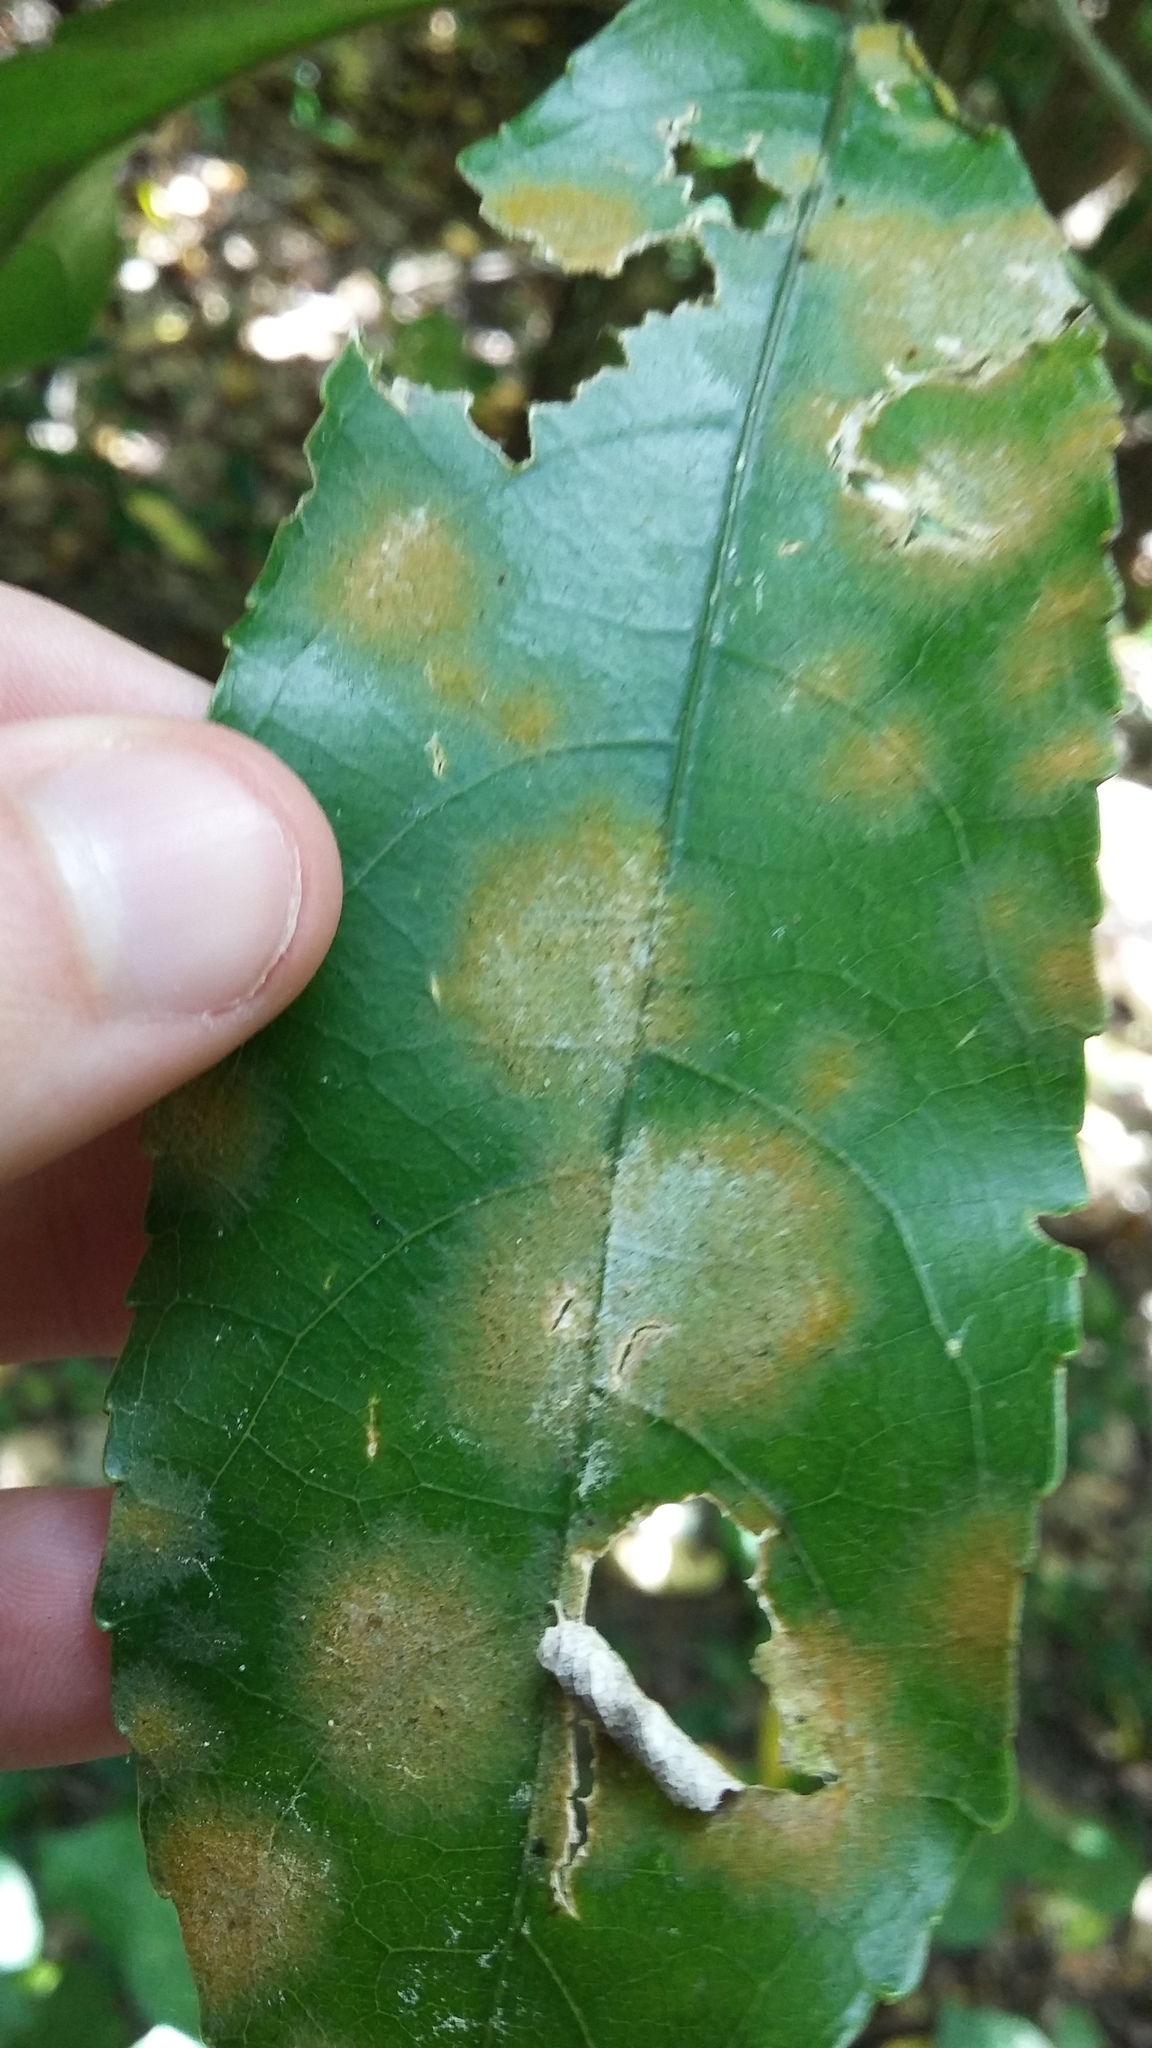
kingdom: Plantae
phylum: Chlorophyta
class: Ulvophyceae
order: Trentepohliales
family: Trentepohliaceae
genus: Cephaleuros
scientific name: Cephaleuros
